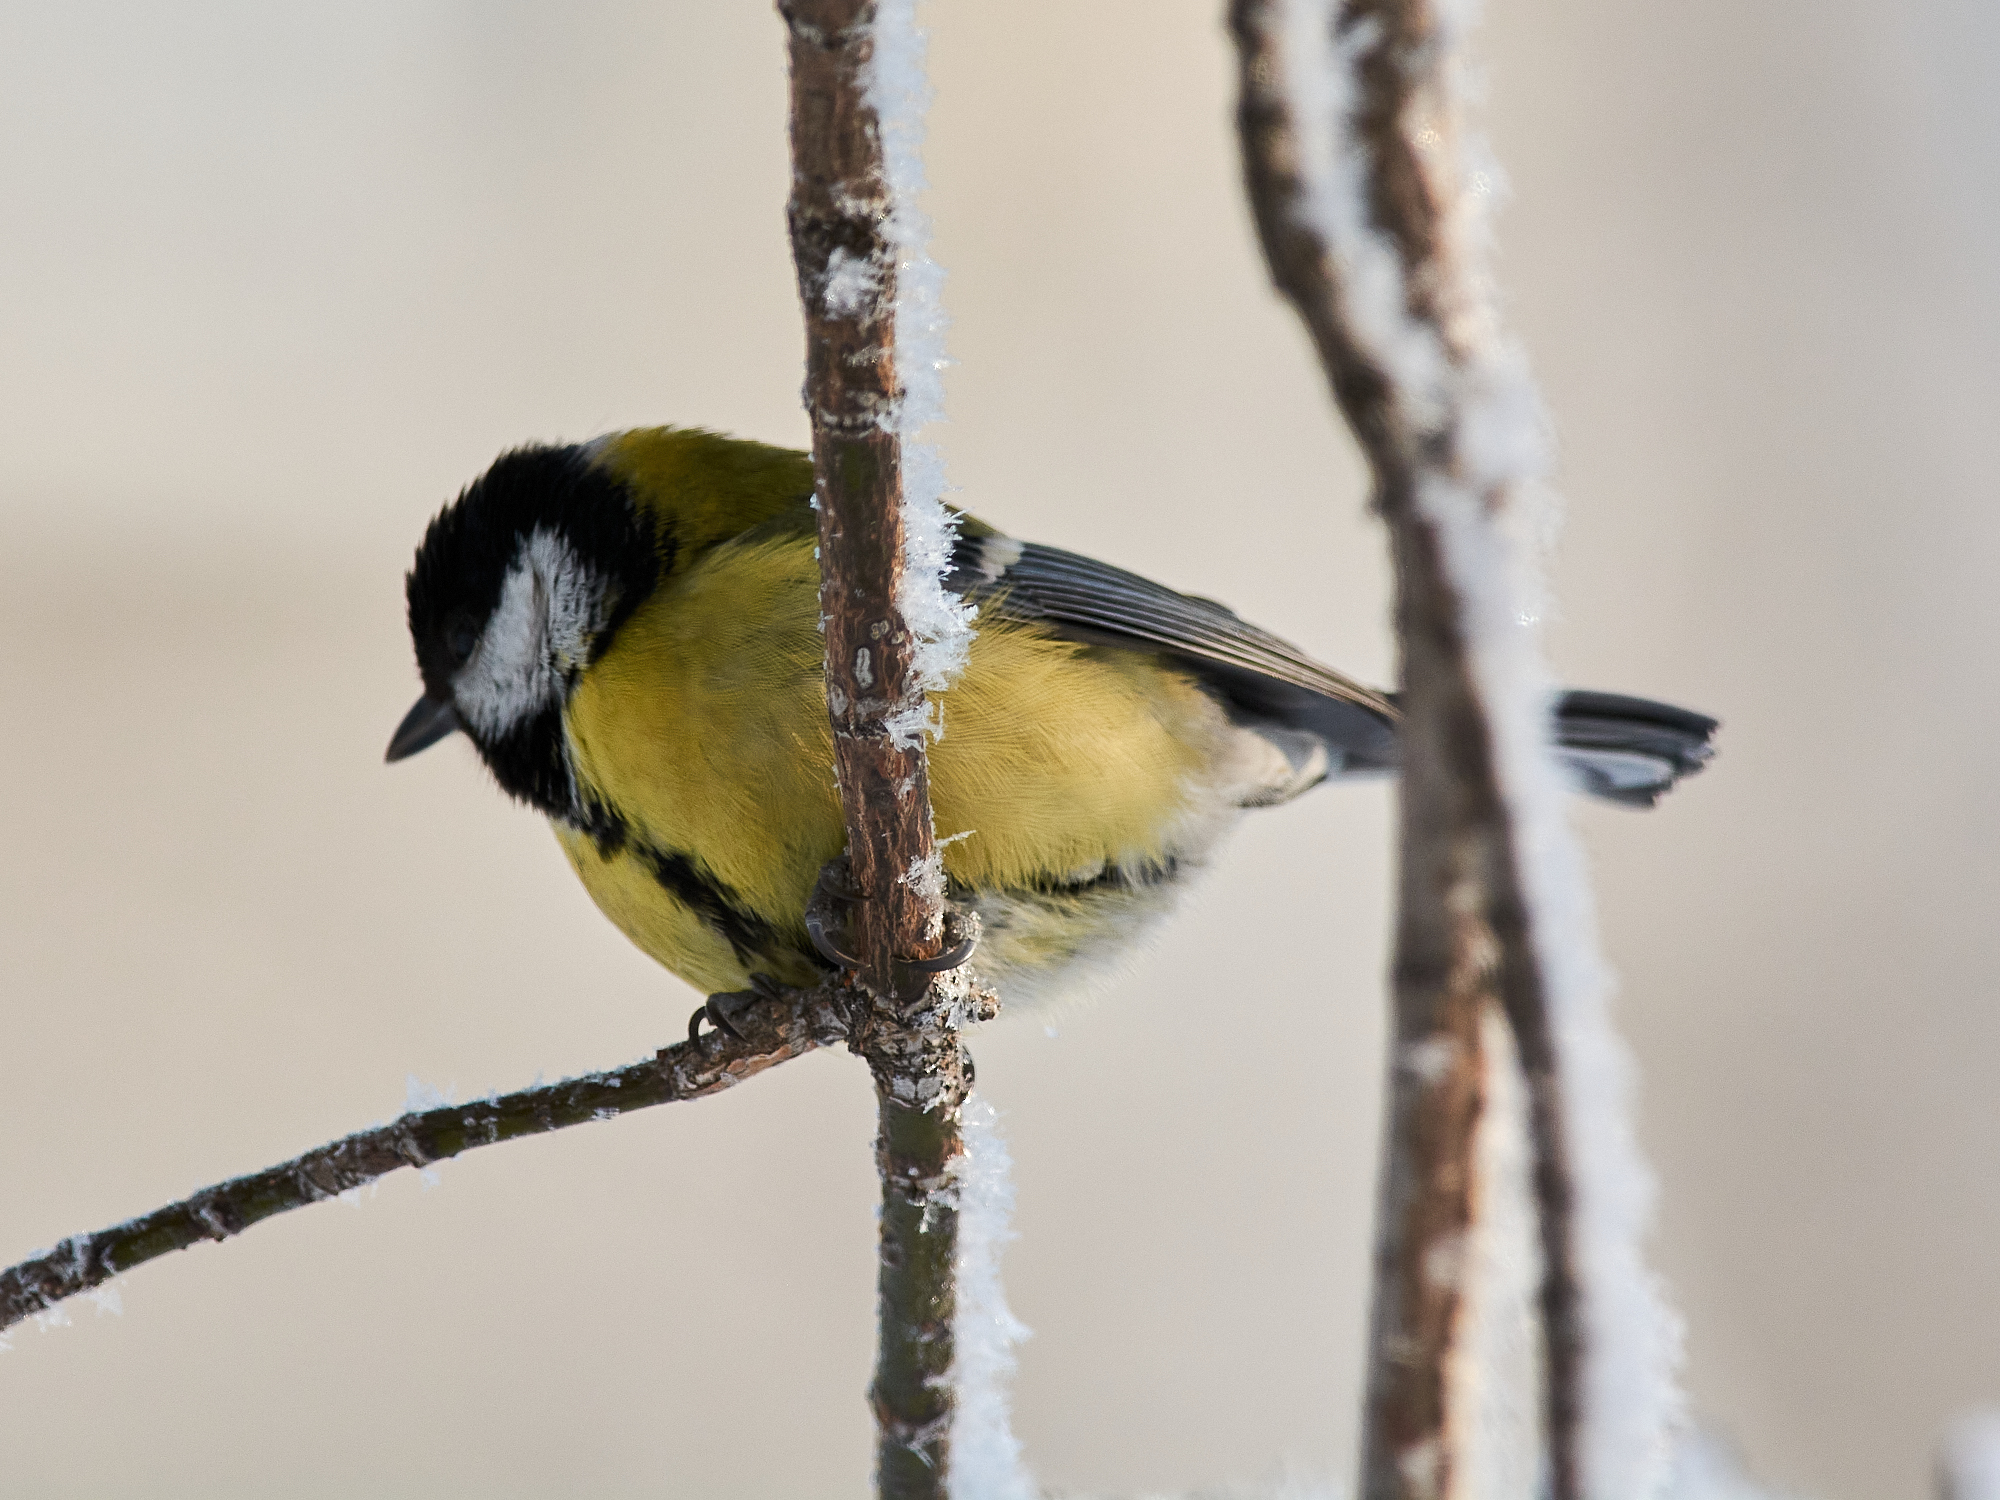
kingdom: Animalia
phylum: Chordata
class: Aves
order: Passeriformes
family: Paridae
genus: Parus
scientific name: Parus major
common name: Great tit
